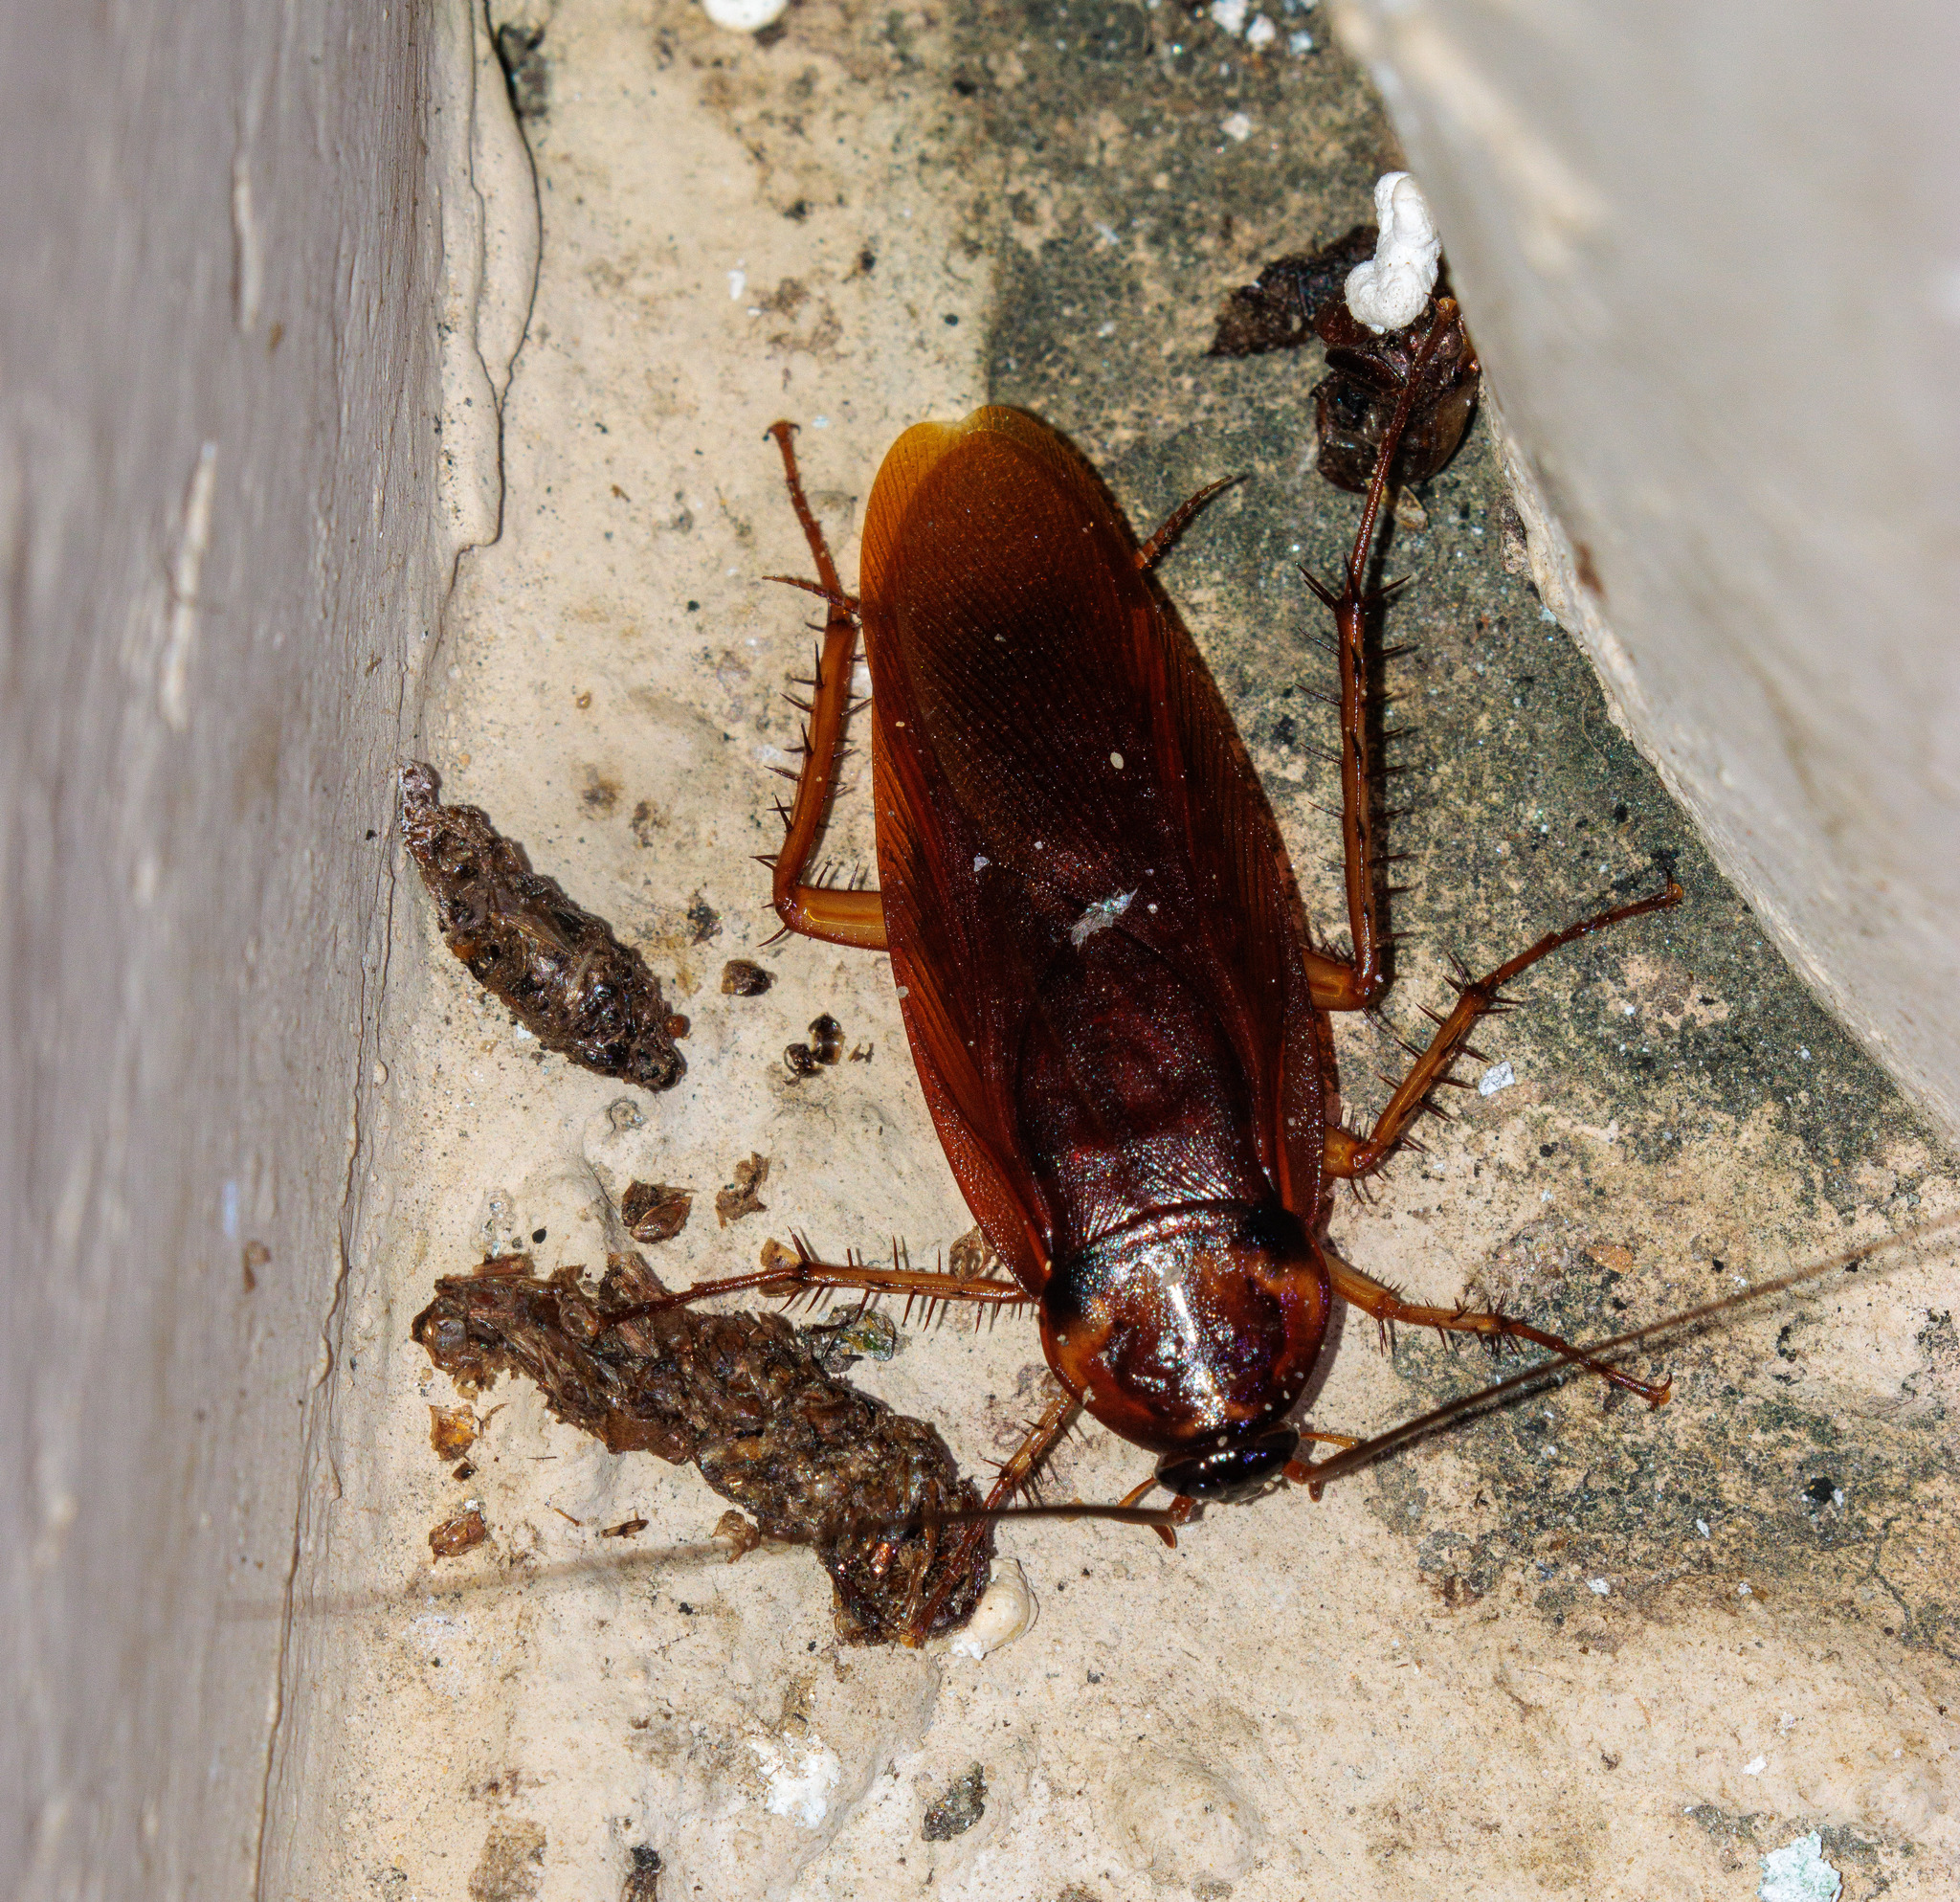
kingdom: Animalia
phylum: Arthropoda
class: Insecta
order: Blattodea
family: Blattidae
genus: Periplaneta
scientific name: Periplaneta americana
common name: American cockroach
